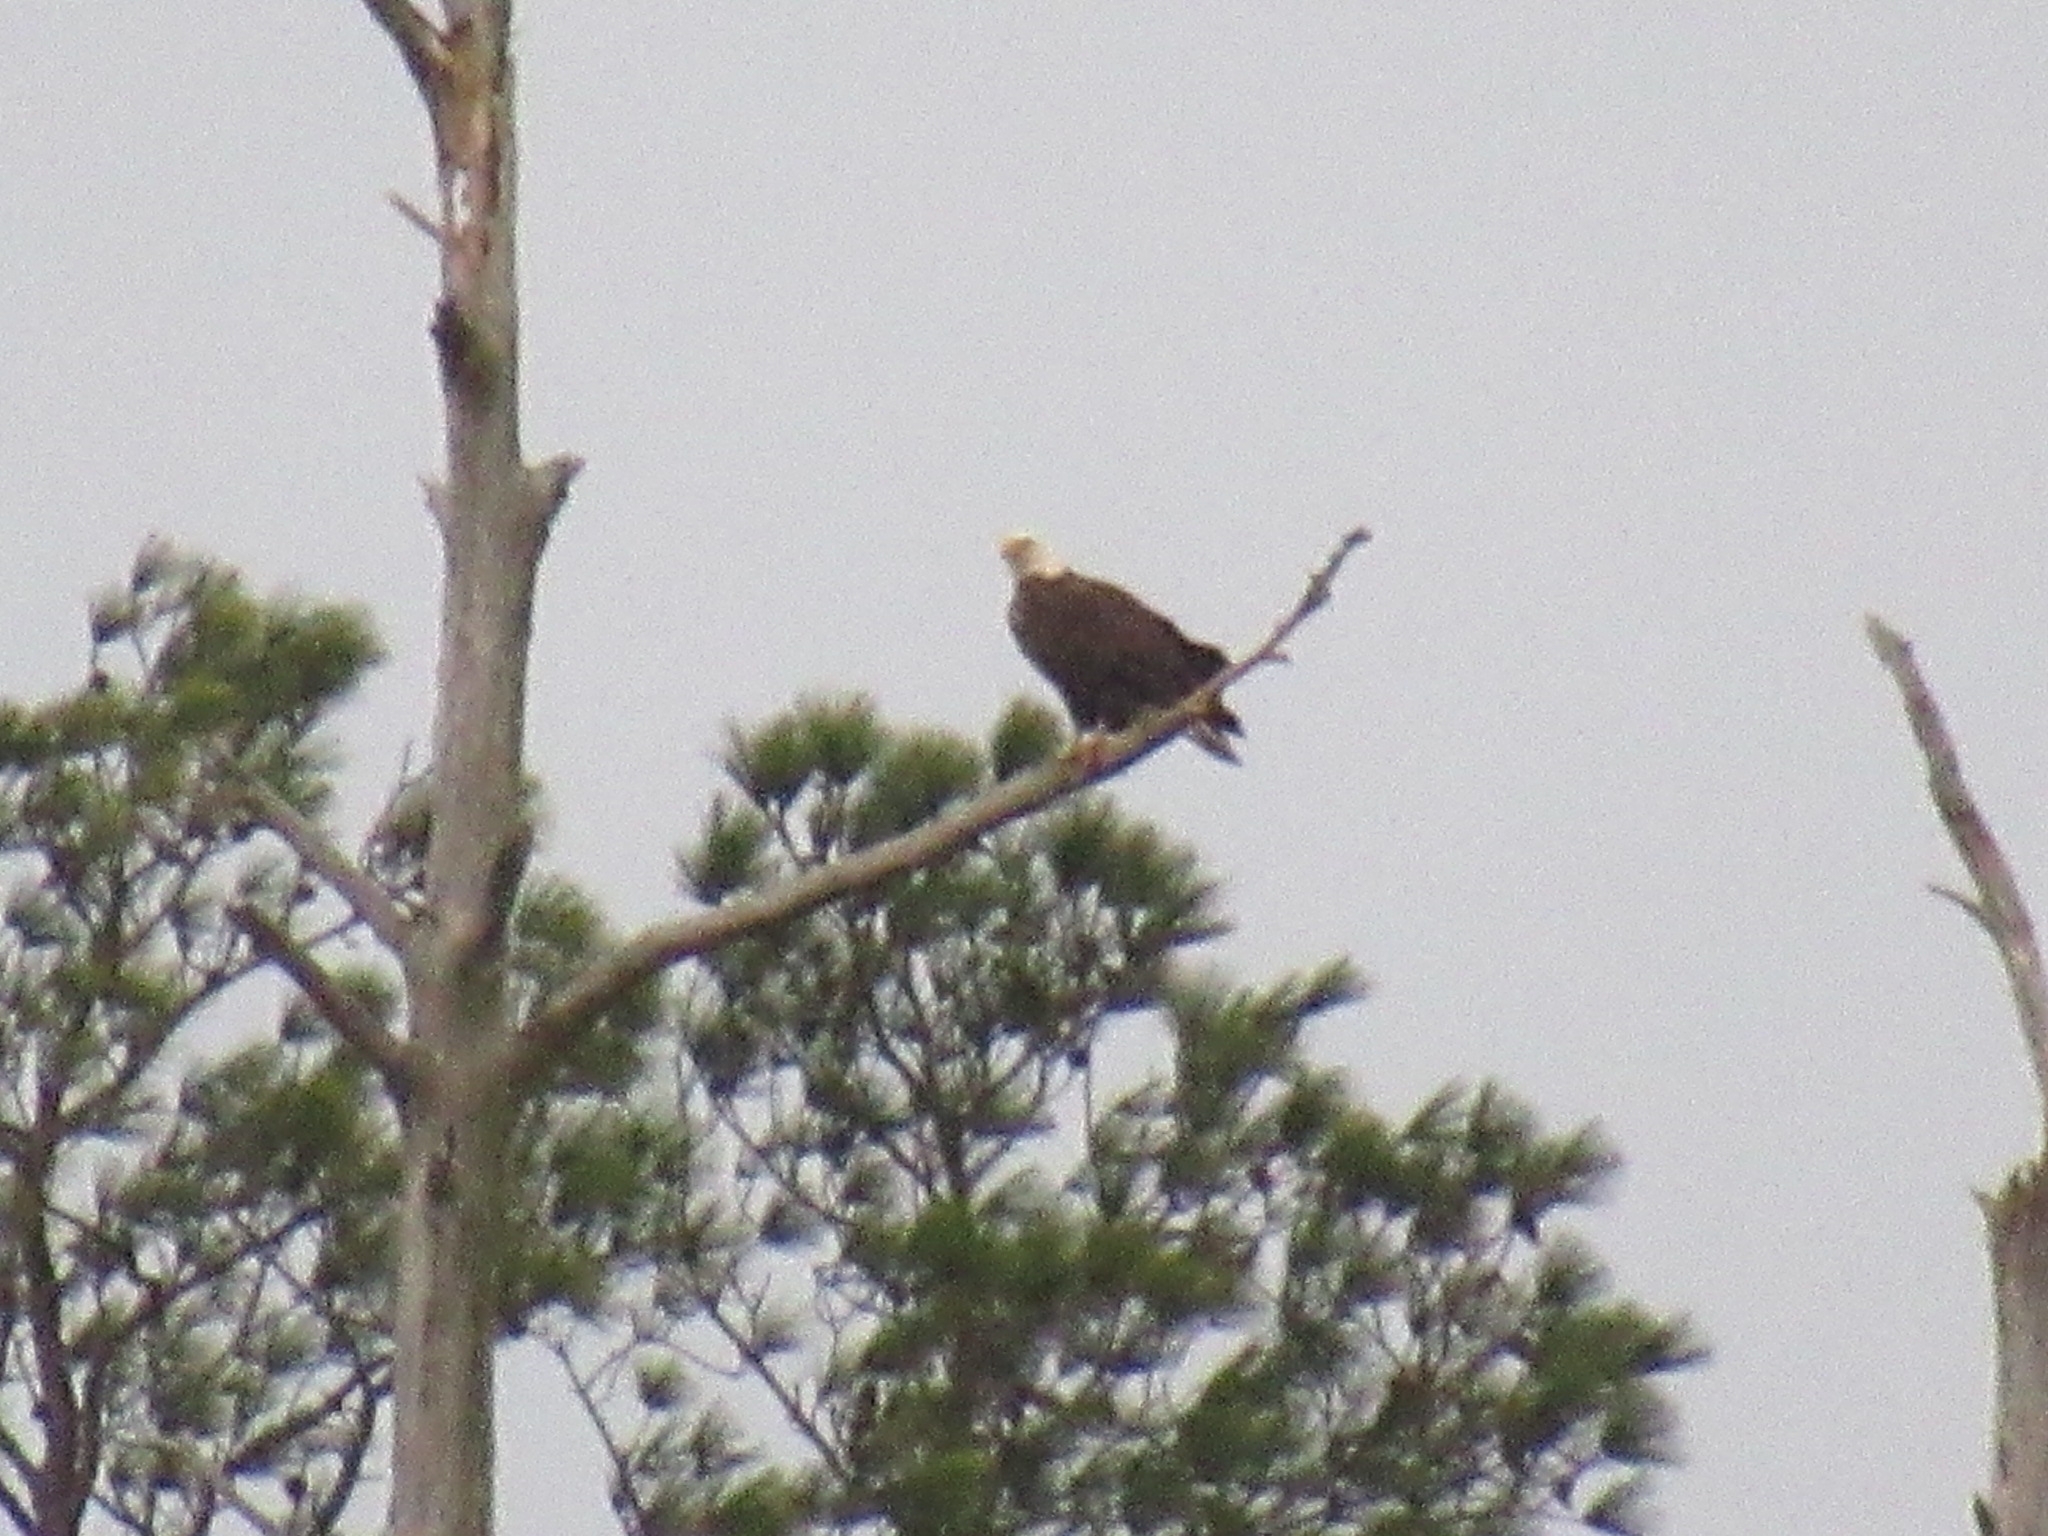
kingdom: Animalia
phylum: Chordata
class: Aves
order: Accipitriformes
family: Accipitridae
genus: Haliaeetus
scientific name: Haliaeetus leucocephalus
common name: Bald eagle
